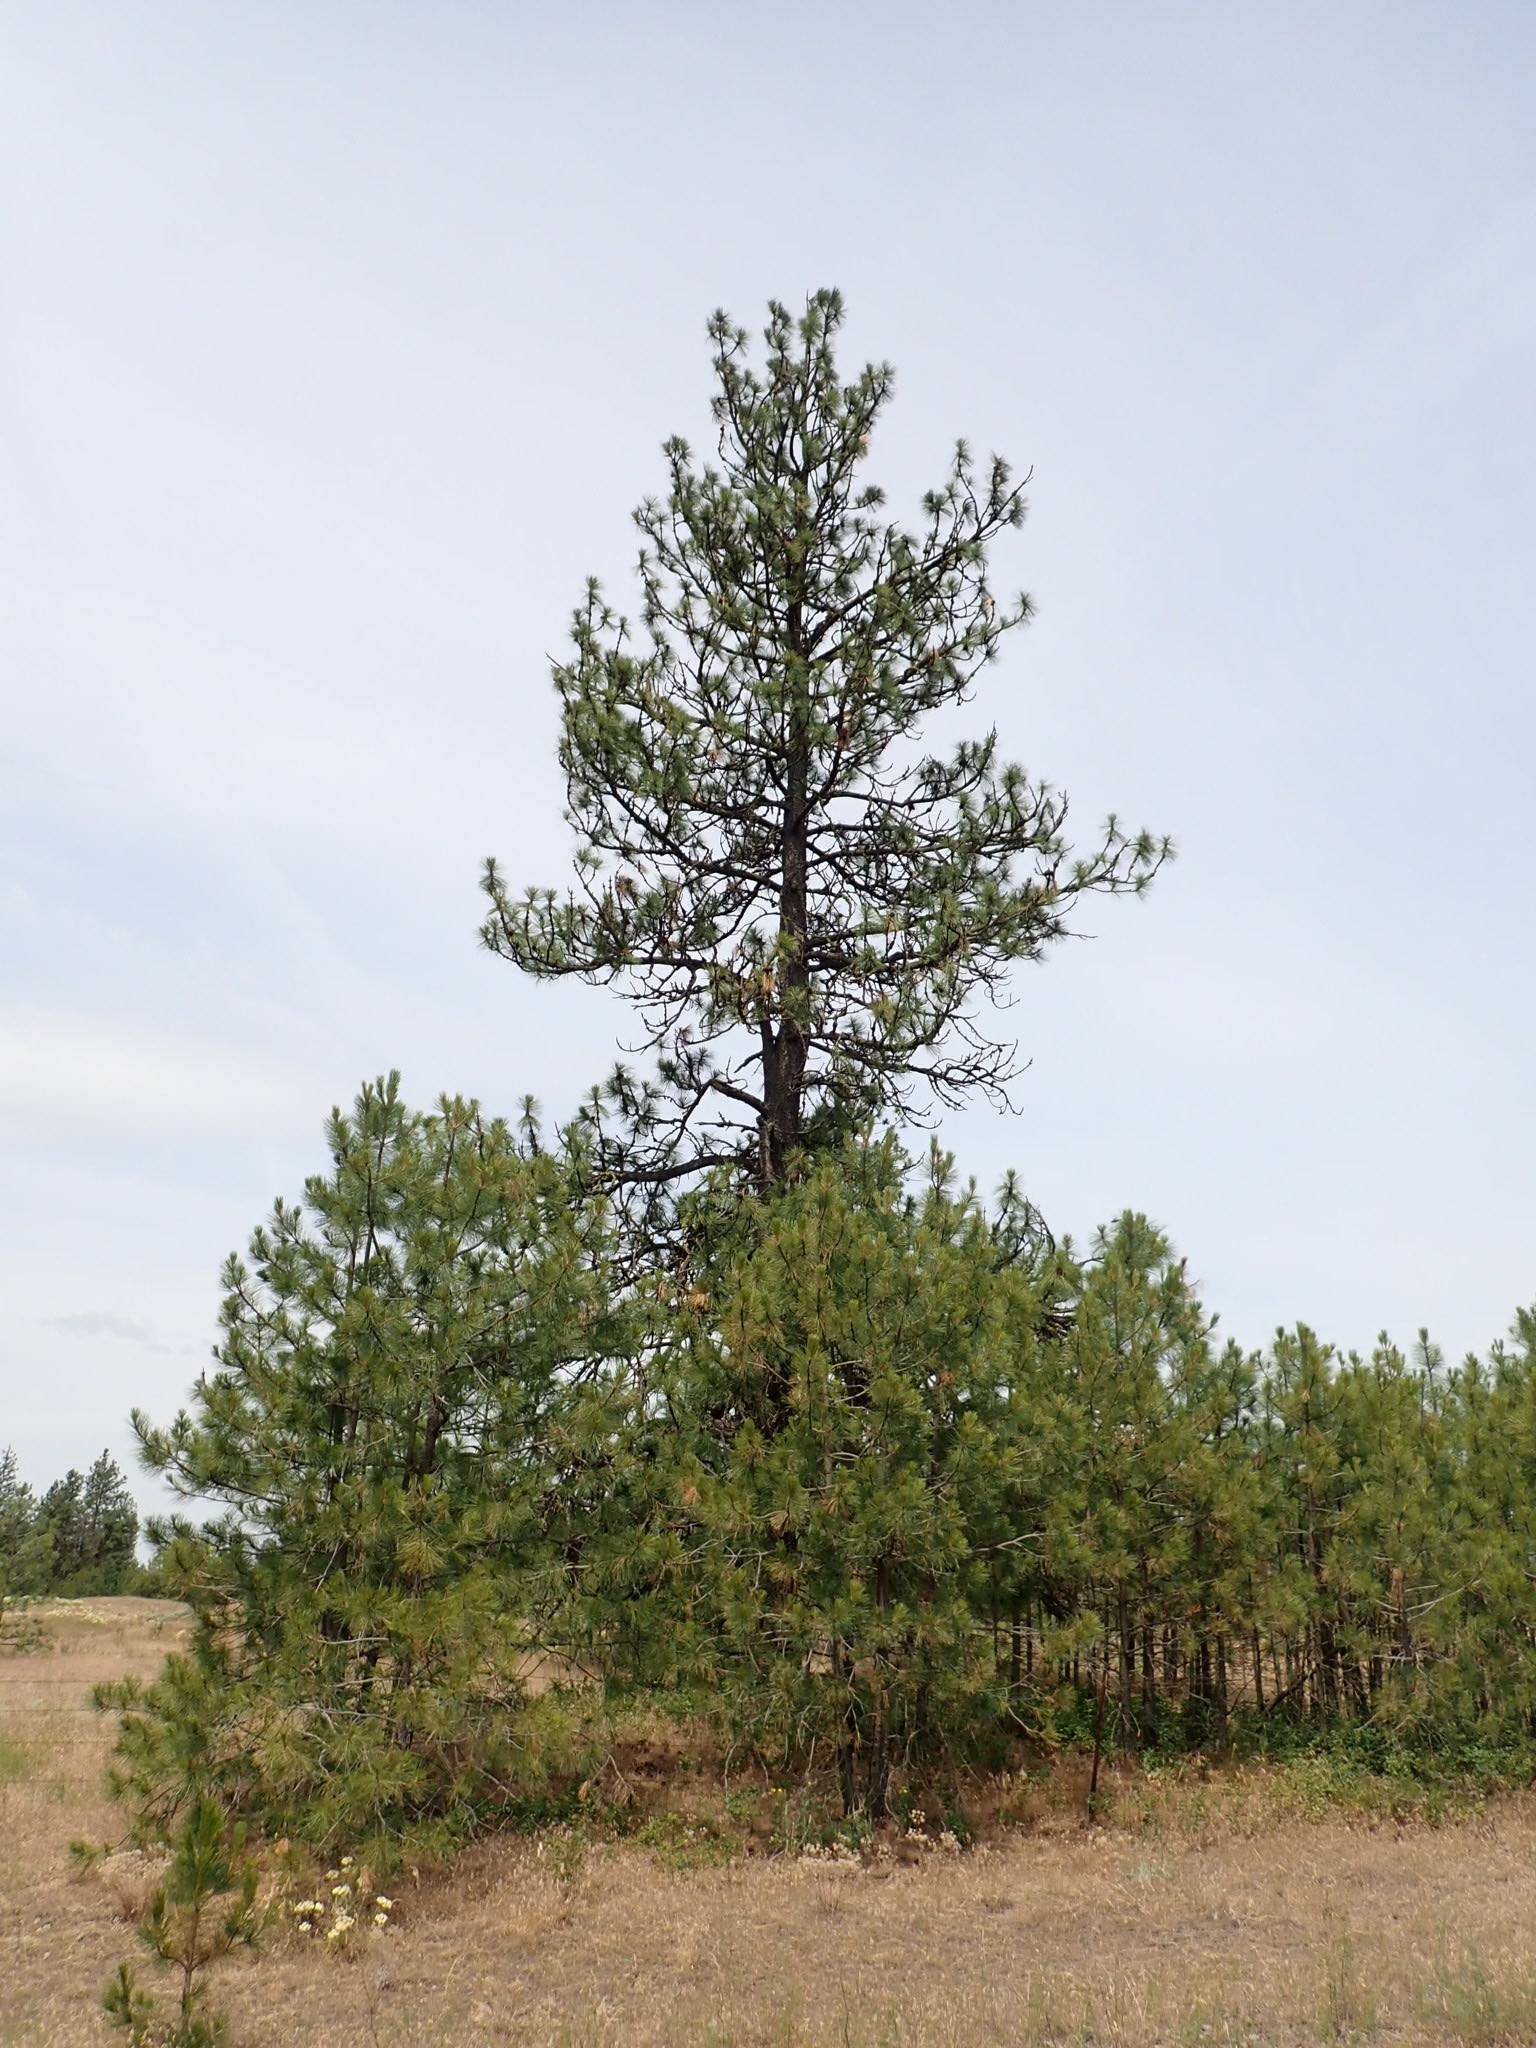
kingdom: Plantae
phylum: Tracheophyta
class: Pinopsida
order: Pinales
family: Pinaceae
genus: Pinus
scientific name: Pinus ponderosa
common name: Western yellow-pine
